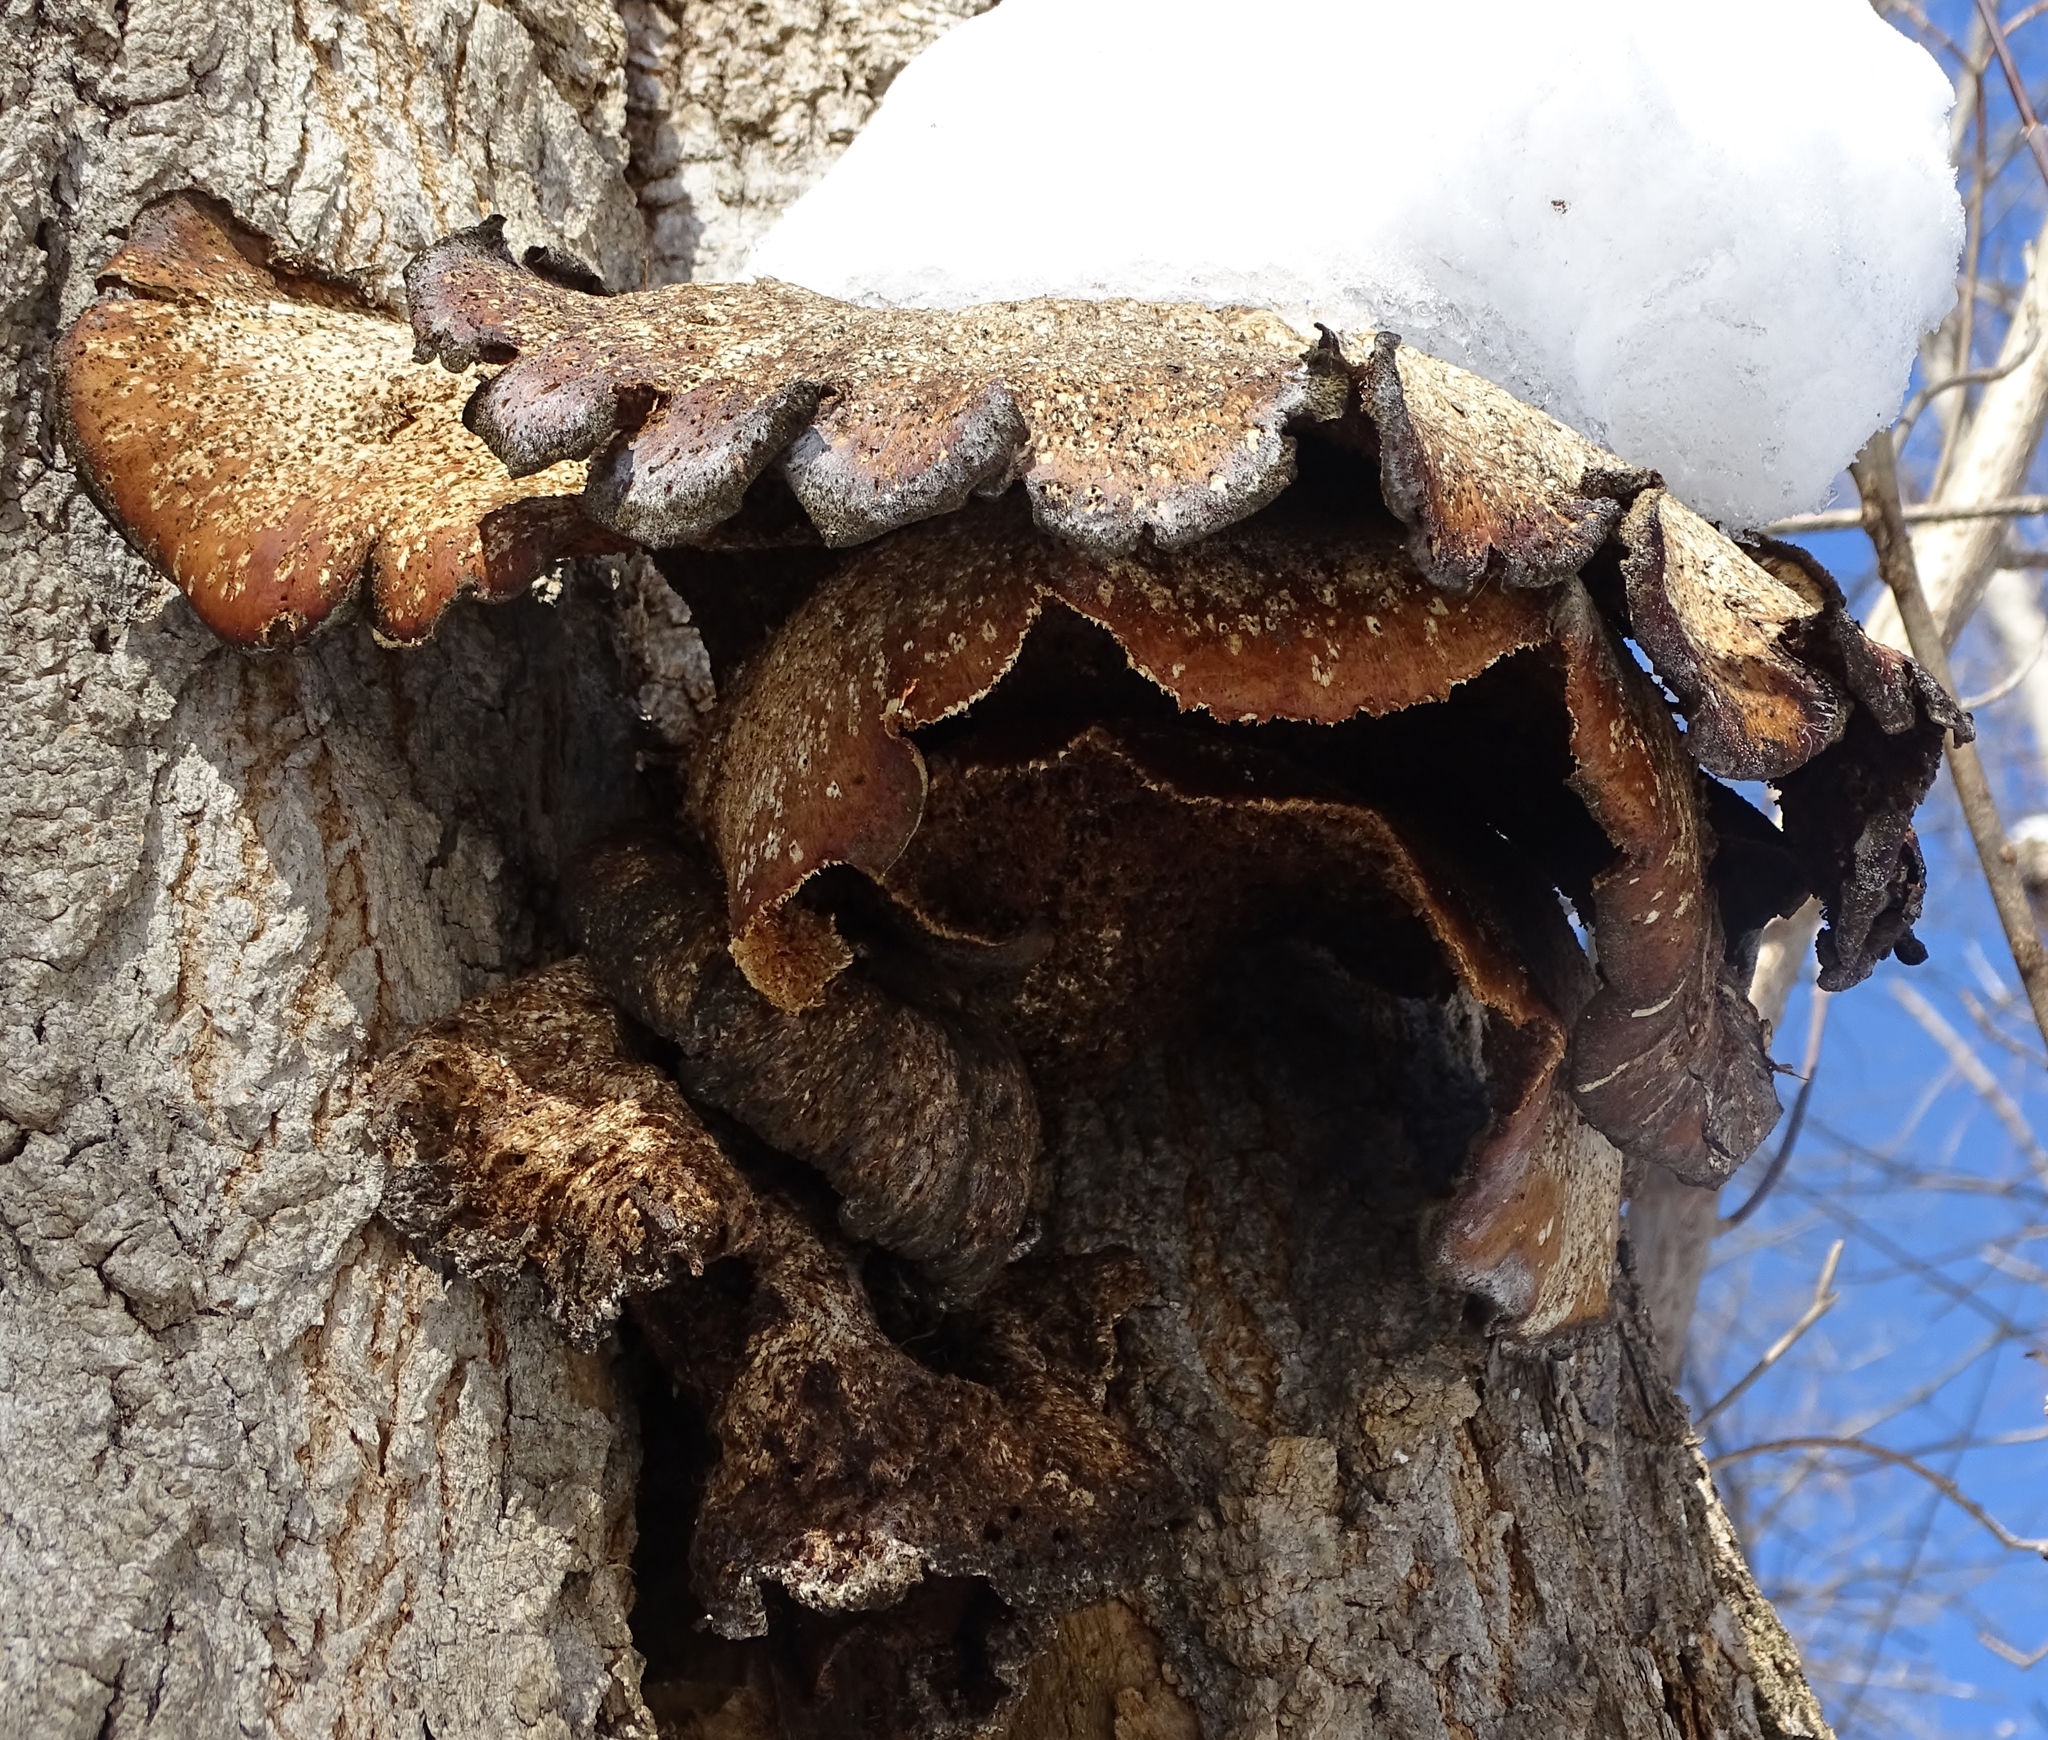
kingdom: Fungi
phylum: Basidiomycota
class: Agaricomycetes
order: Polyporales
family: Polyporaceae
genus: Cerioporus
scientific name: Cerioporus squamosus
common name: Dryad's saddle
